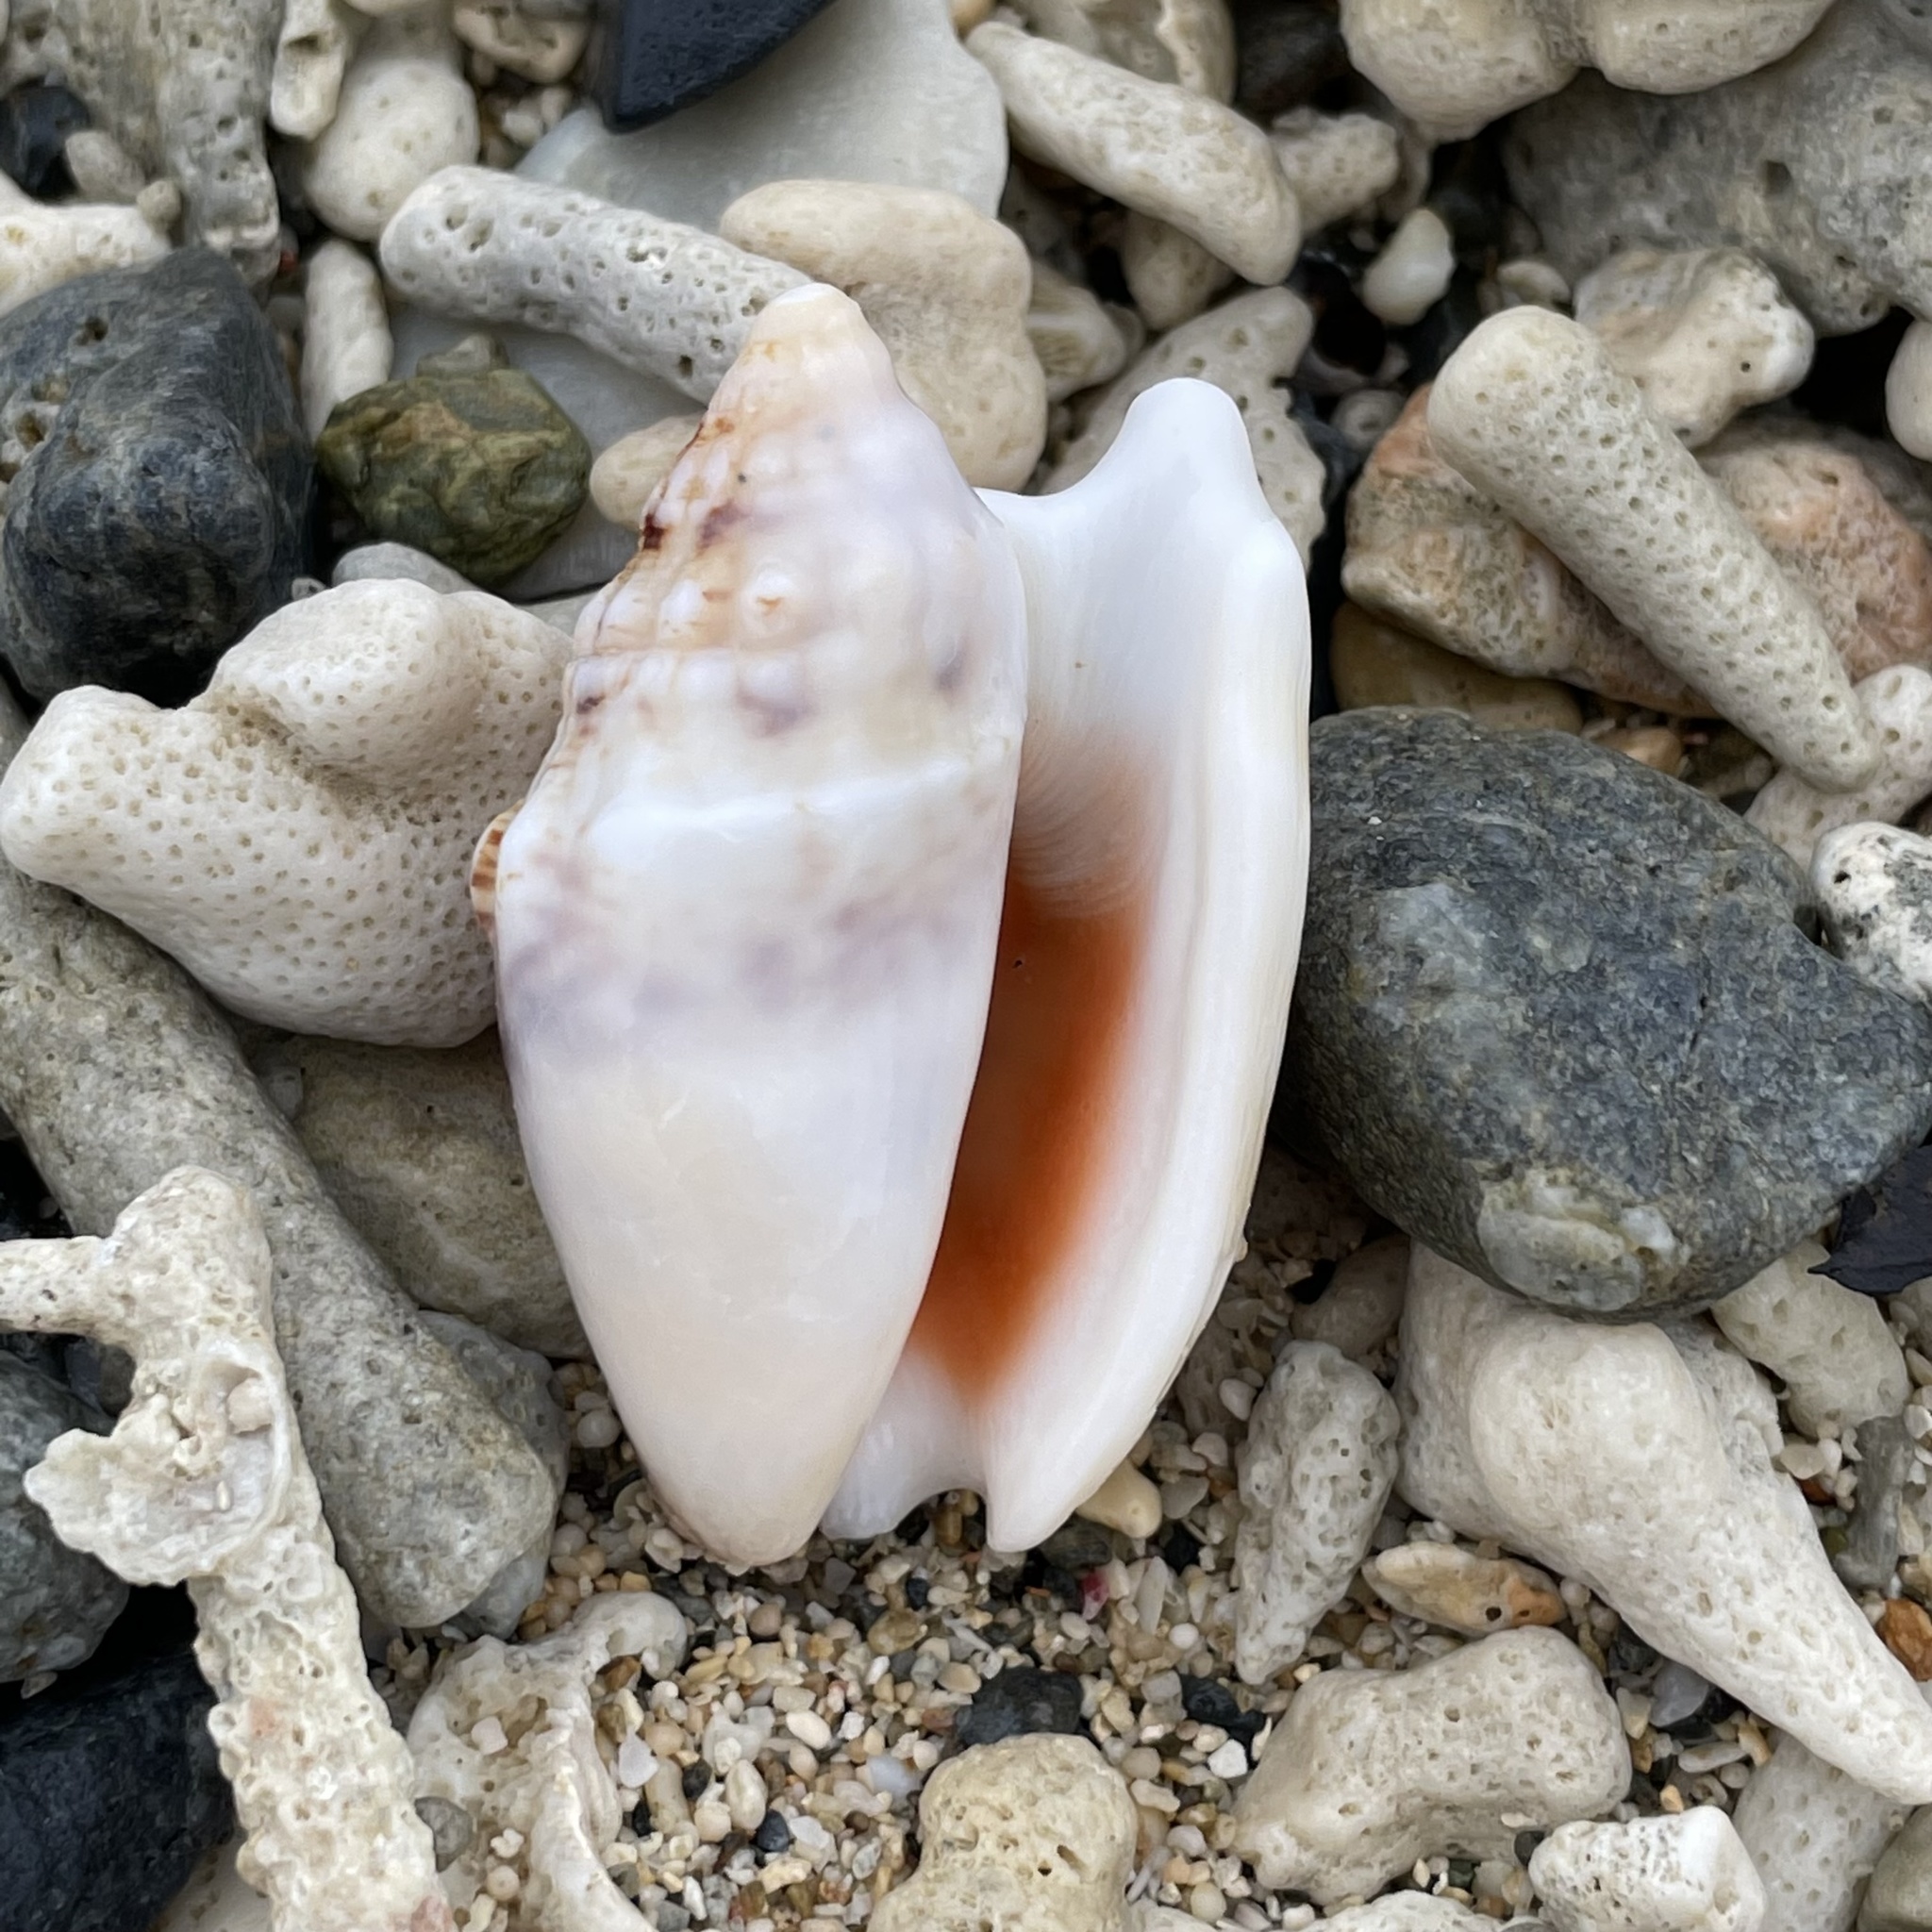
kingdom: Animalia
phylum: Mollusca
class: Gastropoda
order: Littorinimorpha
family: Strombidae
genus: Euprotomus
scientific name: Euprotomus aurisdianae
